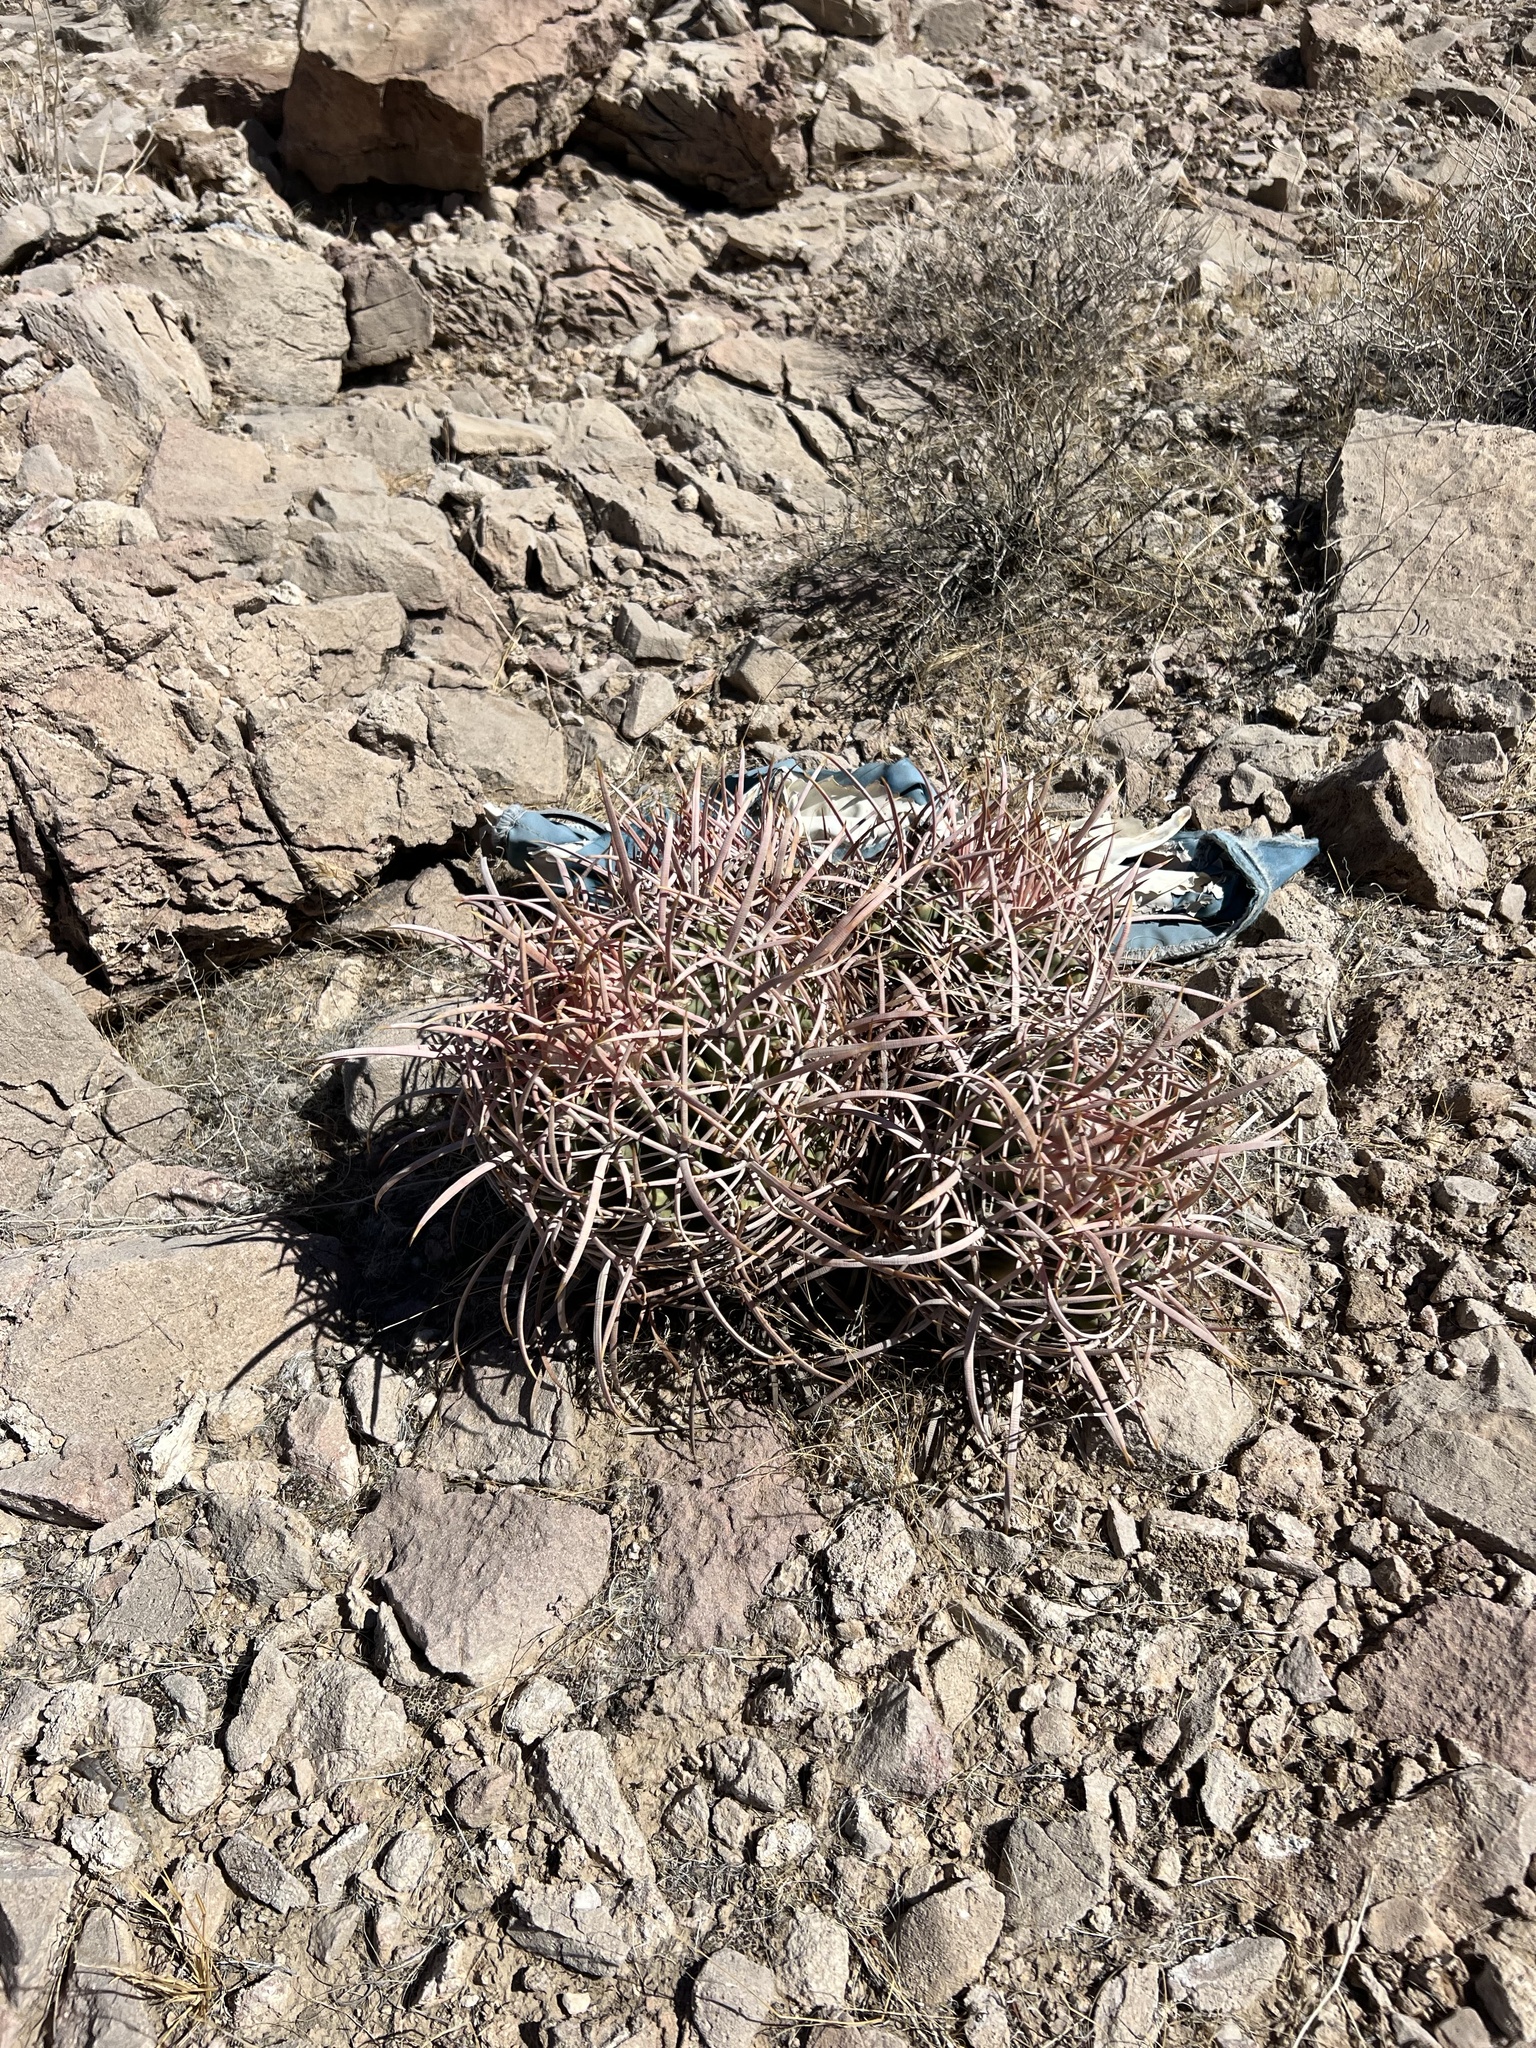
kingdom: Plantae
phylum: Tracheophyta
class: Magnoliopsida
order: Caryophyllales
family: Cactaceae
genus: Echinocactus
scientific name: Echinocactus polycephalus
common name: Cottontop cactus
